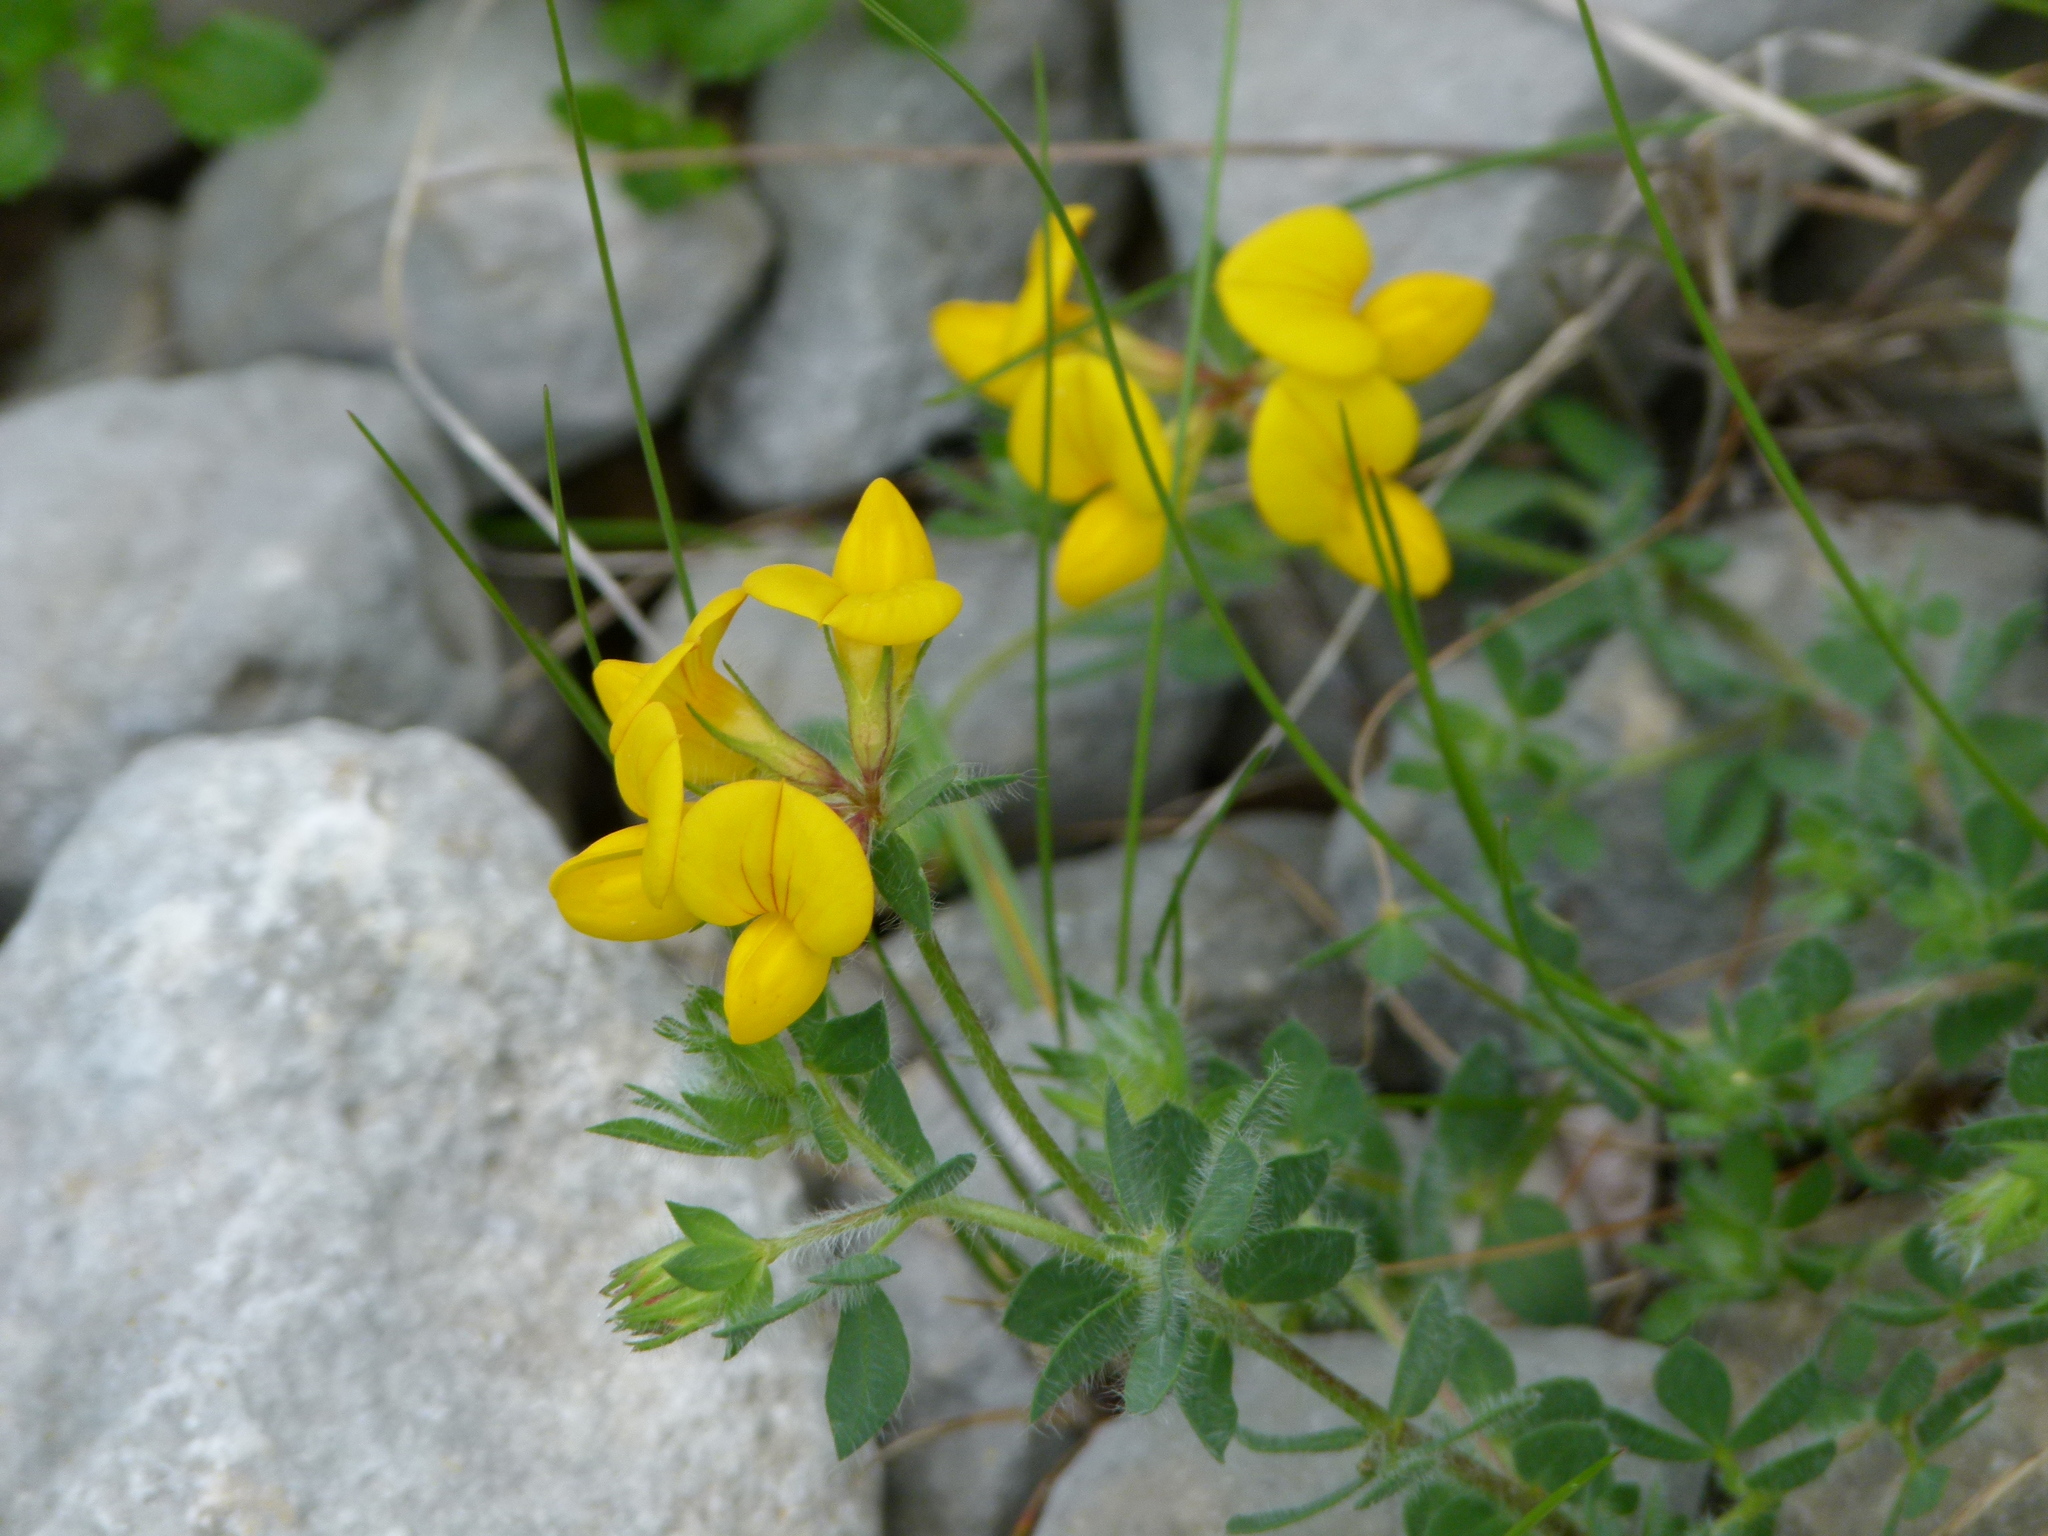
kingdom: Plantae
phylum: Tracheophyta
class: Magnoliopsida
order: Fabales
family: Fabaceae
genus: Lotus
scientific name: Lotus corniculatus
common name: Common bird's-foot-trefoil
